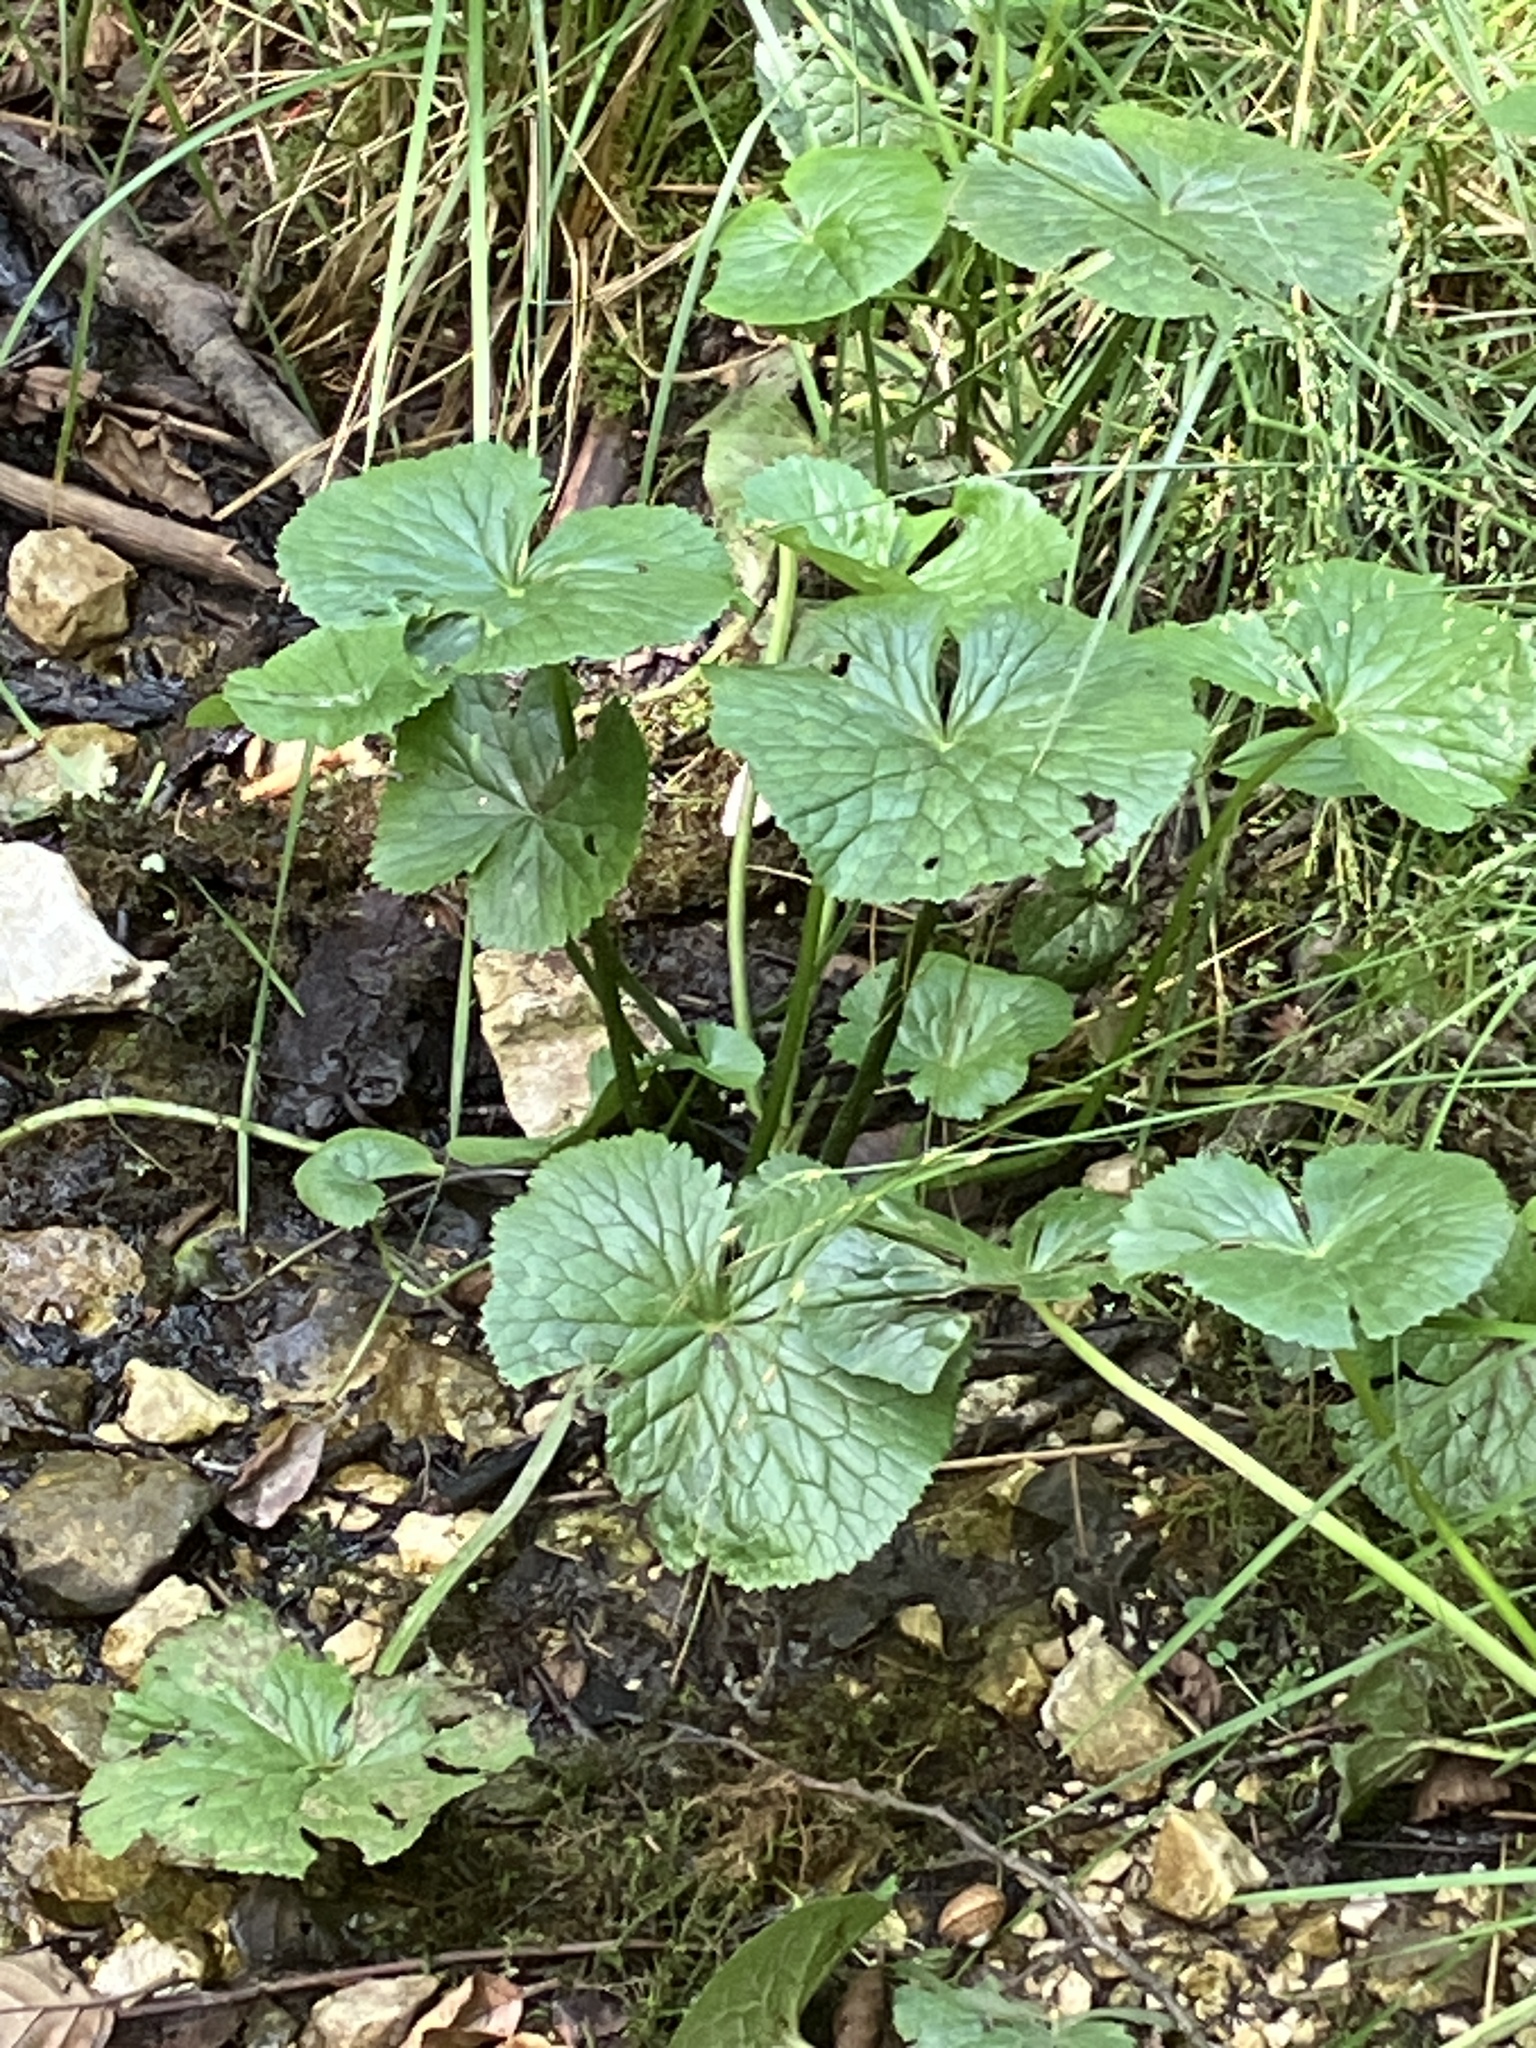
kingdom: Plantae
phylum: Tracheophyta
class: Magnoliopsida
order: Ranunculales
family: Ranunculaceae
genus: Caltha
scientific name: Caltha palustris
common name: Marsh marigold
